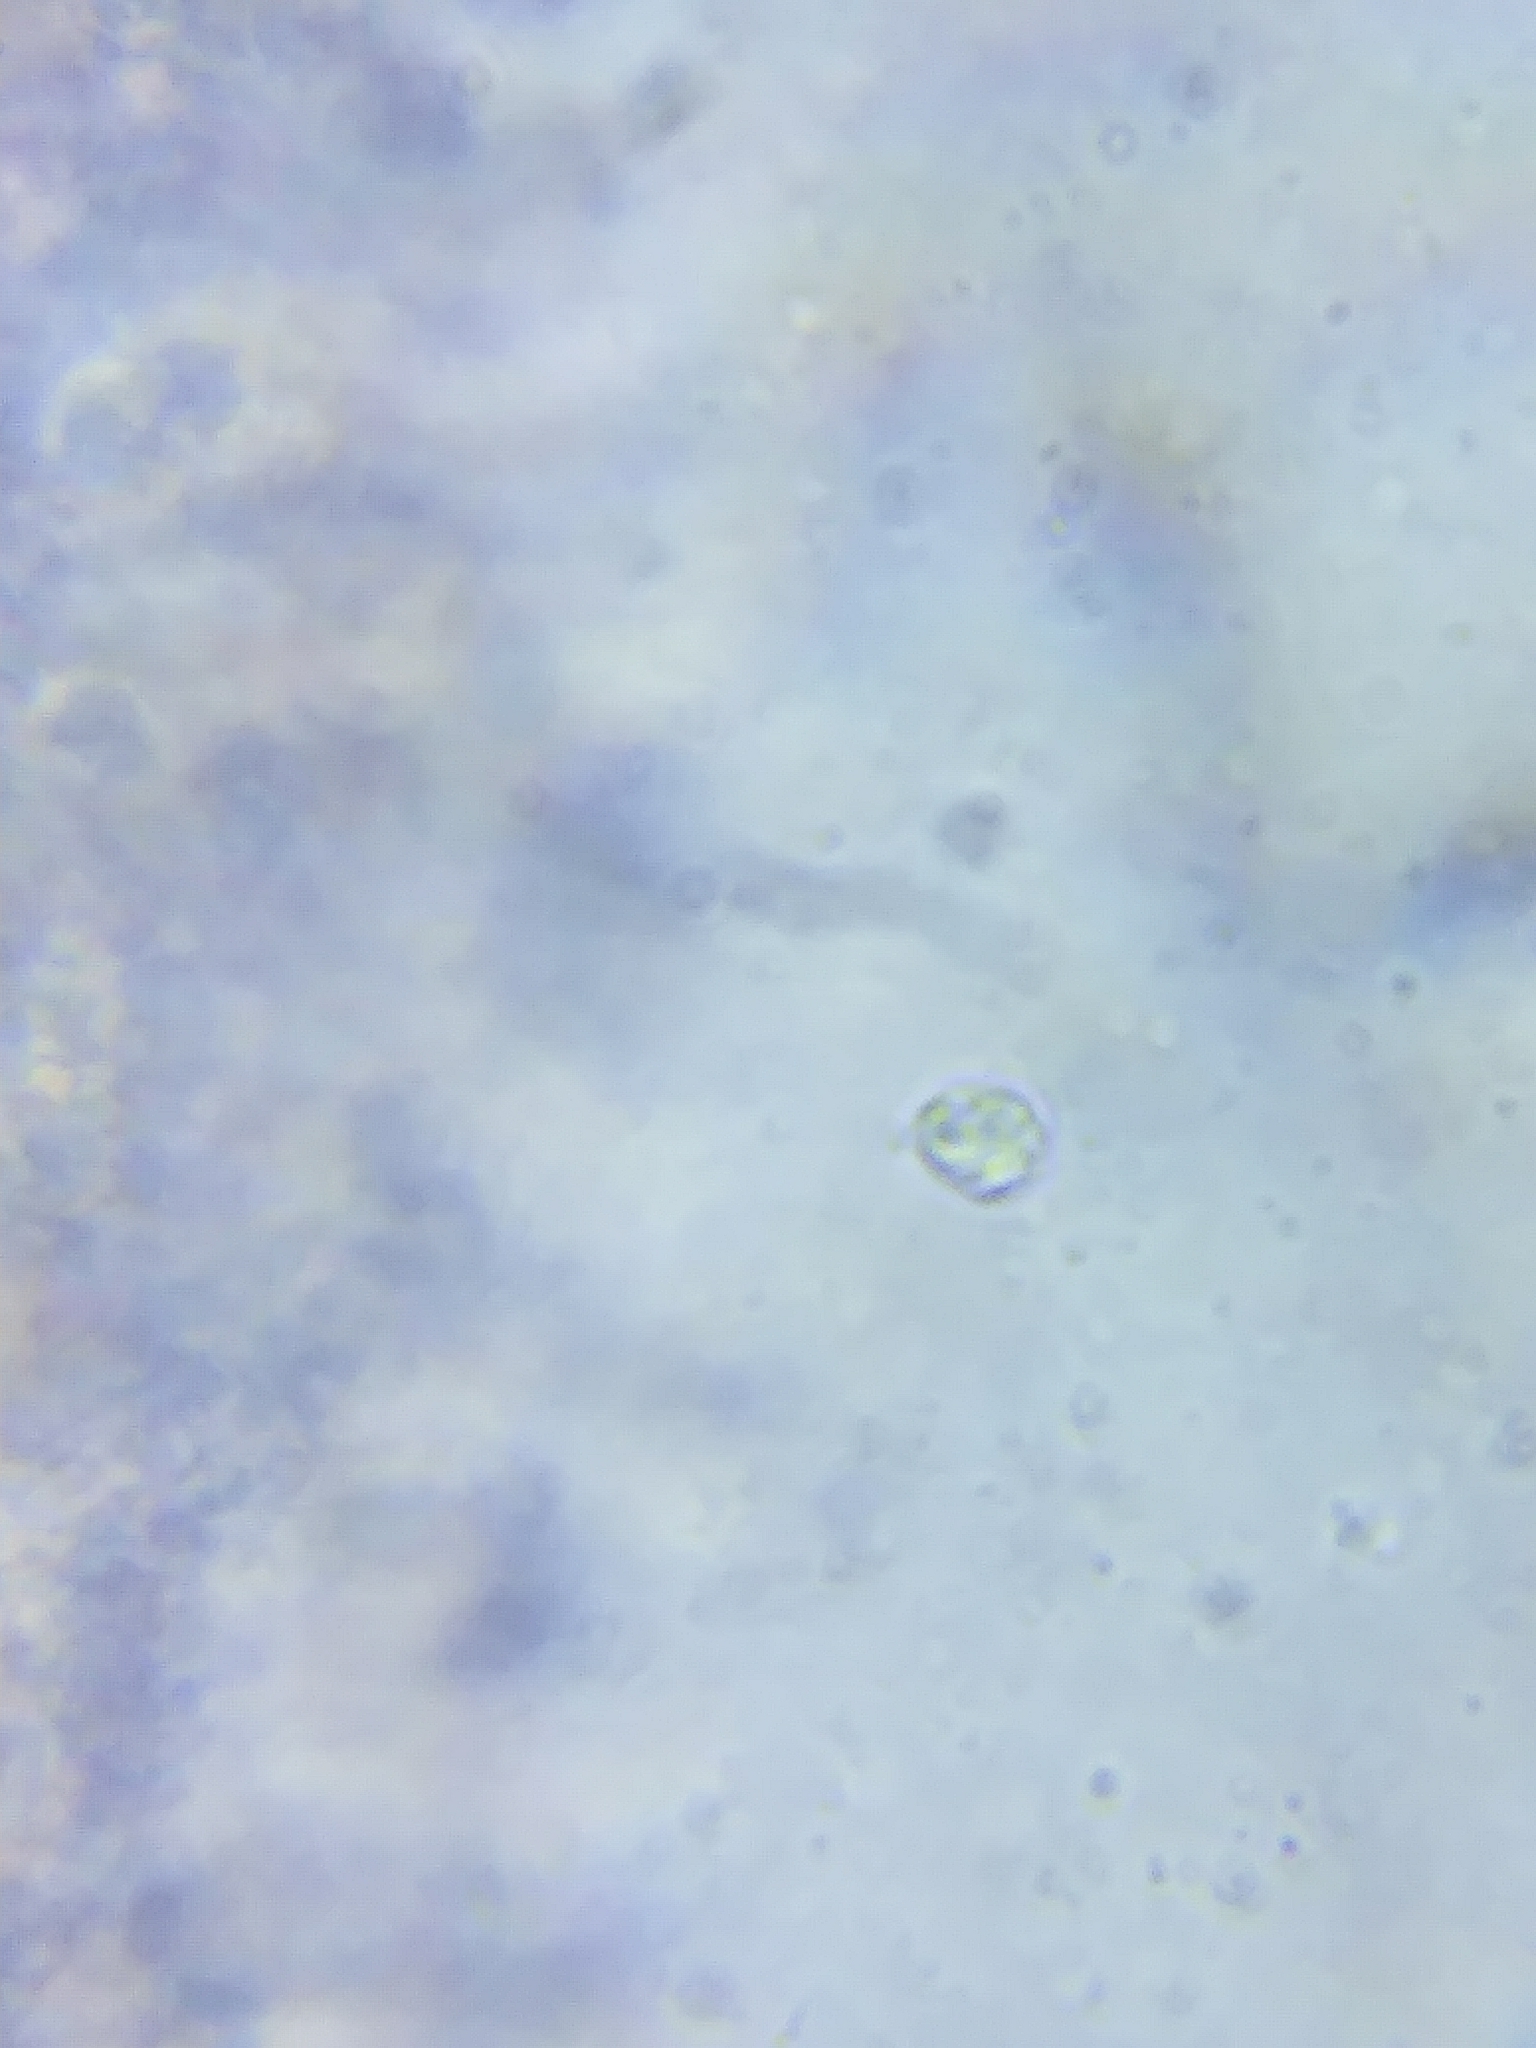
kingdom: Fungi
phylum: Basidiomycota
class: Agaricomycetes
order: Agaricales
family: Tricholomataceae
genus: Tricholoma
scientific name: Tricholoma saponaceum
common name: Soapy trich
